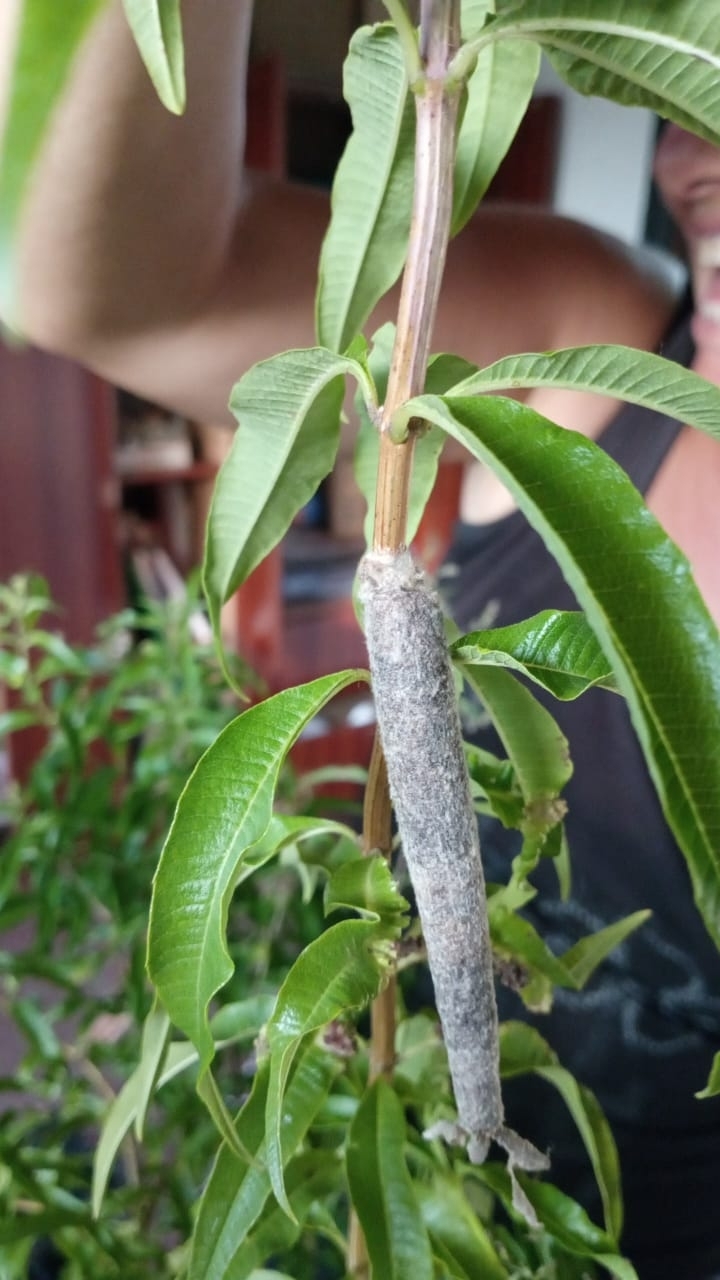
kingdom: Animalia
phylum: Arthropoda
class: Insecta
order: Lepidoptera
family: Psychidae
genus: Oiketicus
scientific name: Oiketicus geyeri
